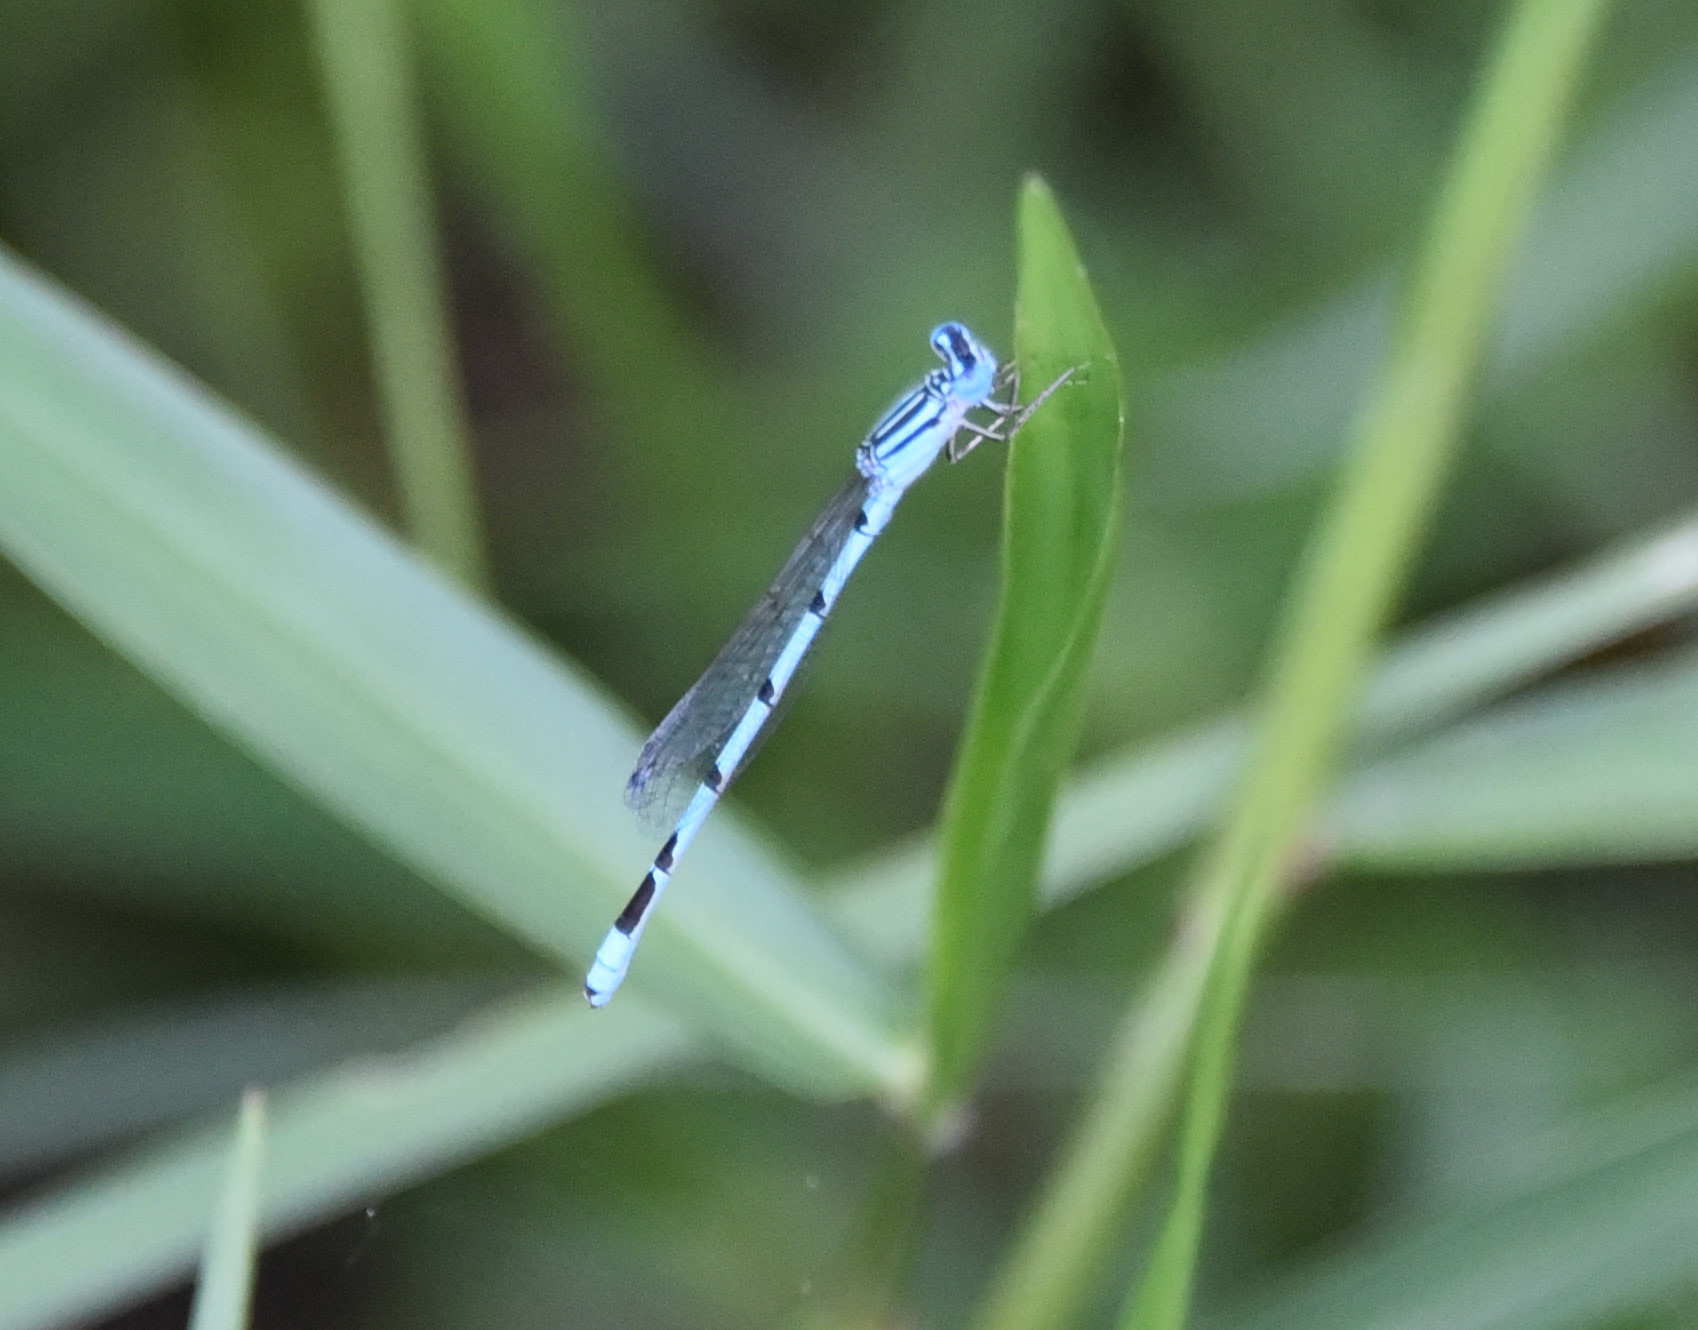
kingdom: Animalia
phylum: Arthropoda
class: Insecta
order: Odonata
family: Coenagrionidae
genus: Enallagma
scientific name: Enallagma durum
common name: Big bluet
